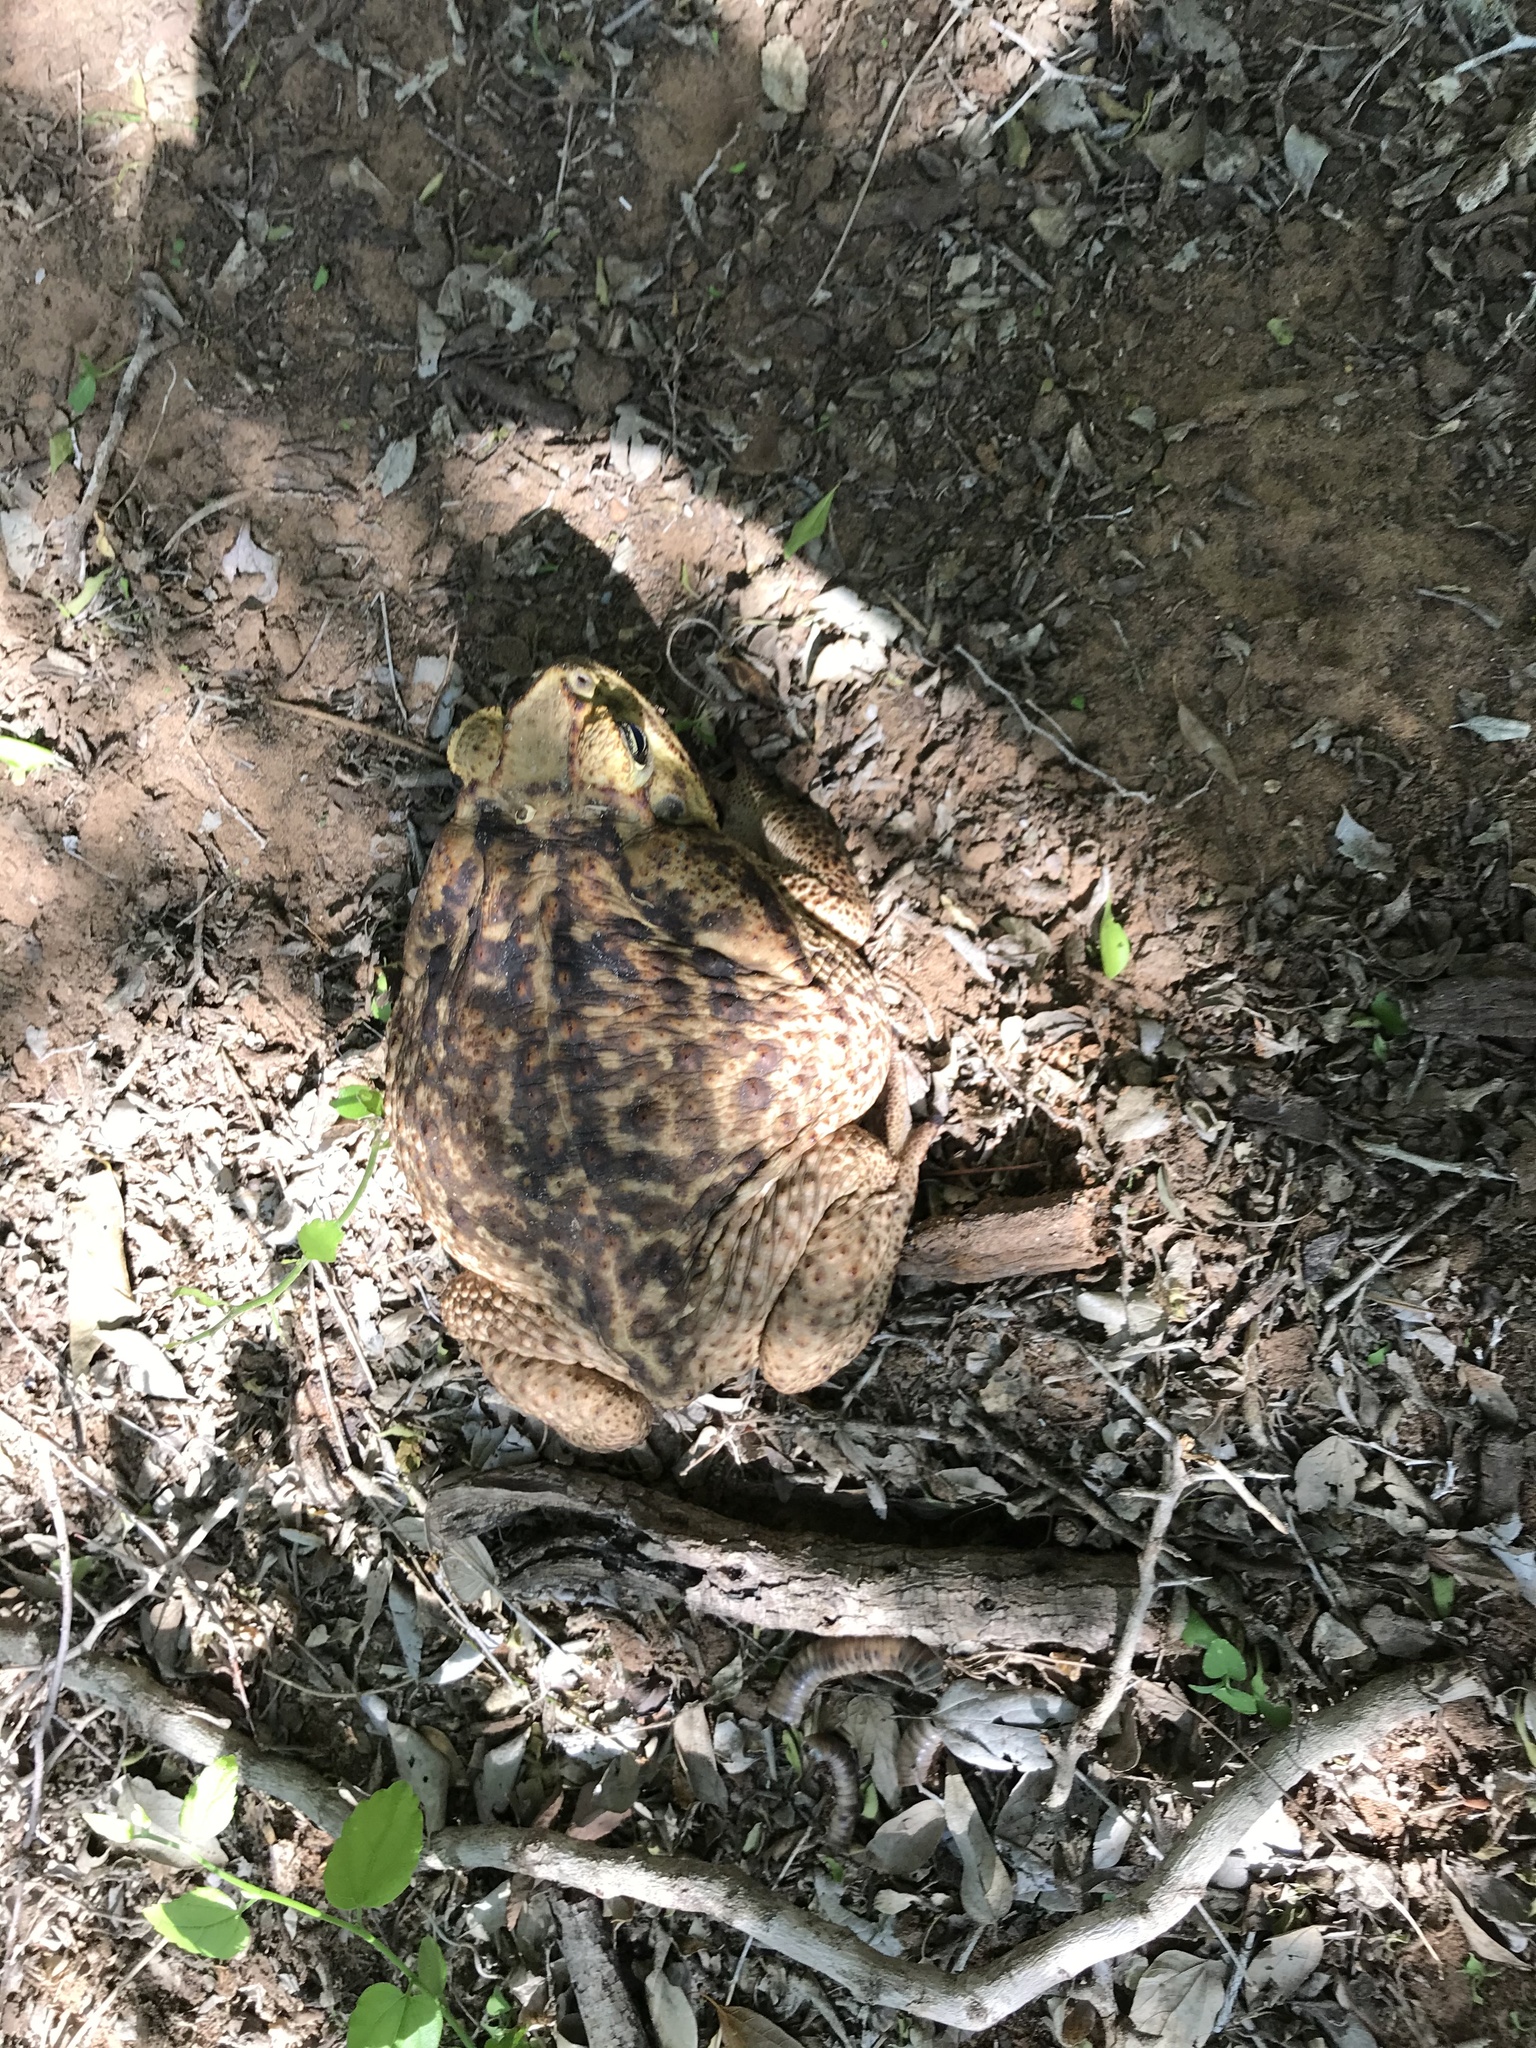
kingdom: Animalia
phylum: Chordata
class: Amphibia
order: Anura
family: Bufonidae
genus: Rhinella
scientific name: Rhinella horribilis
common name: Mesoamerican cane toad
